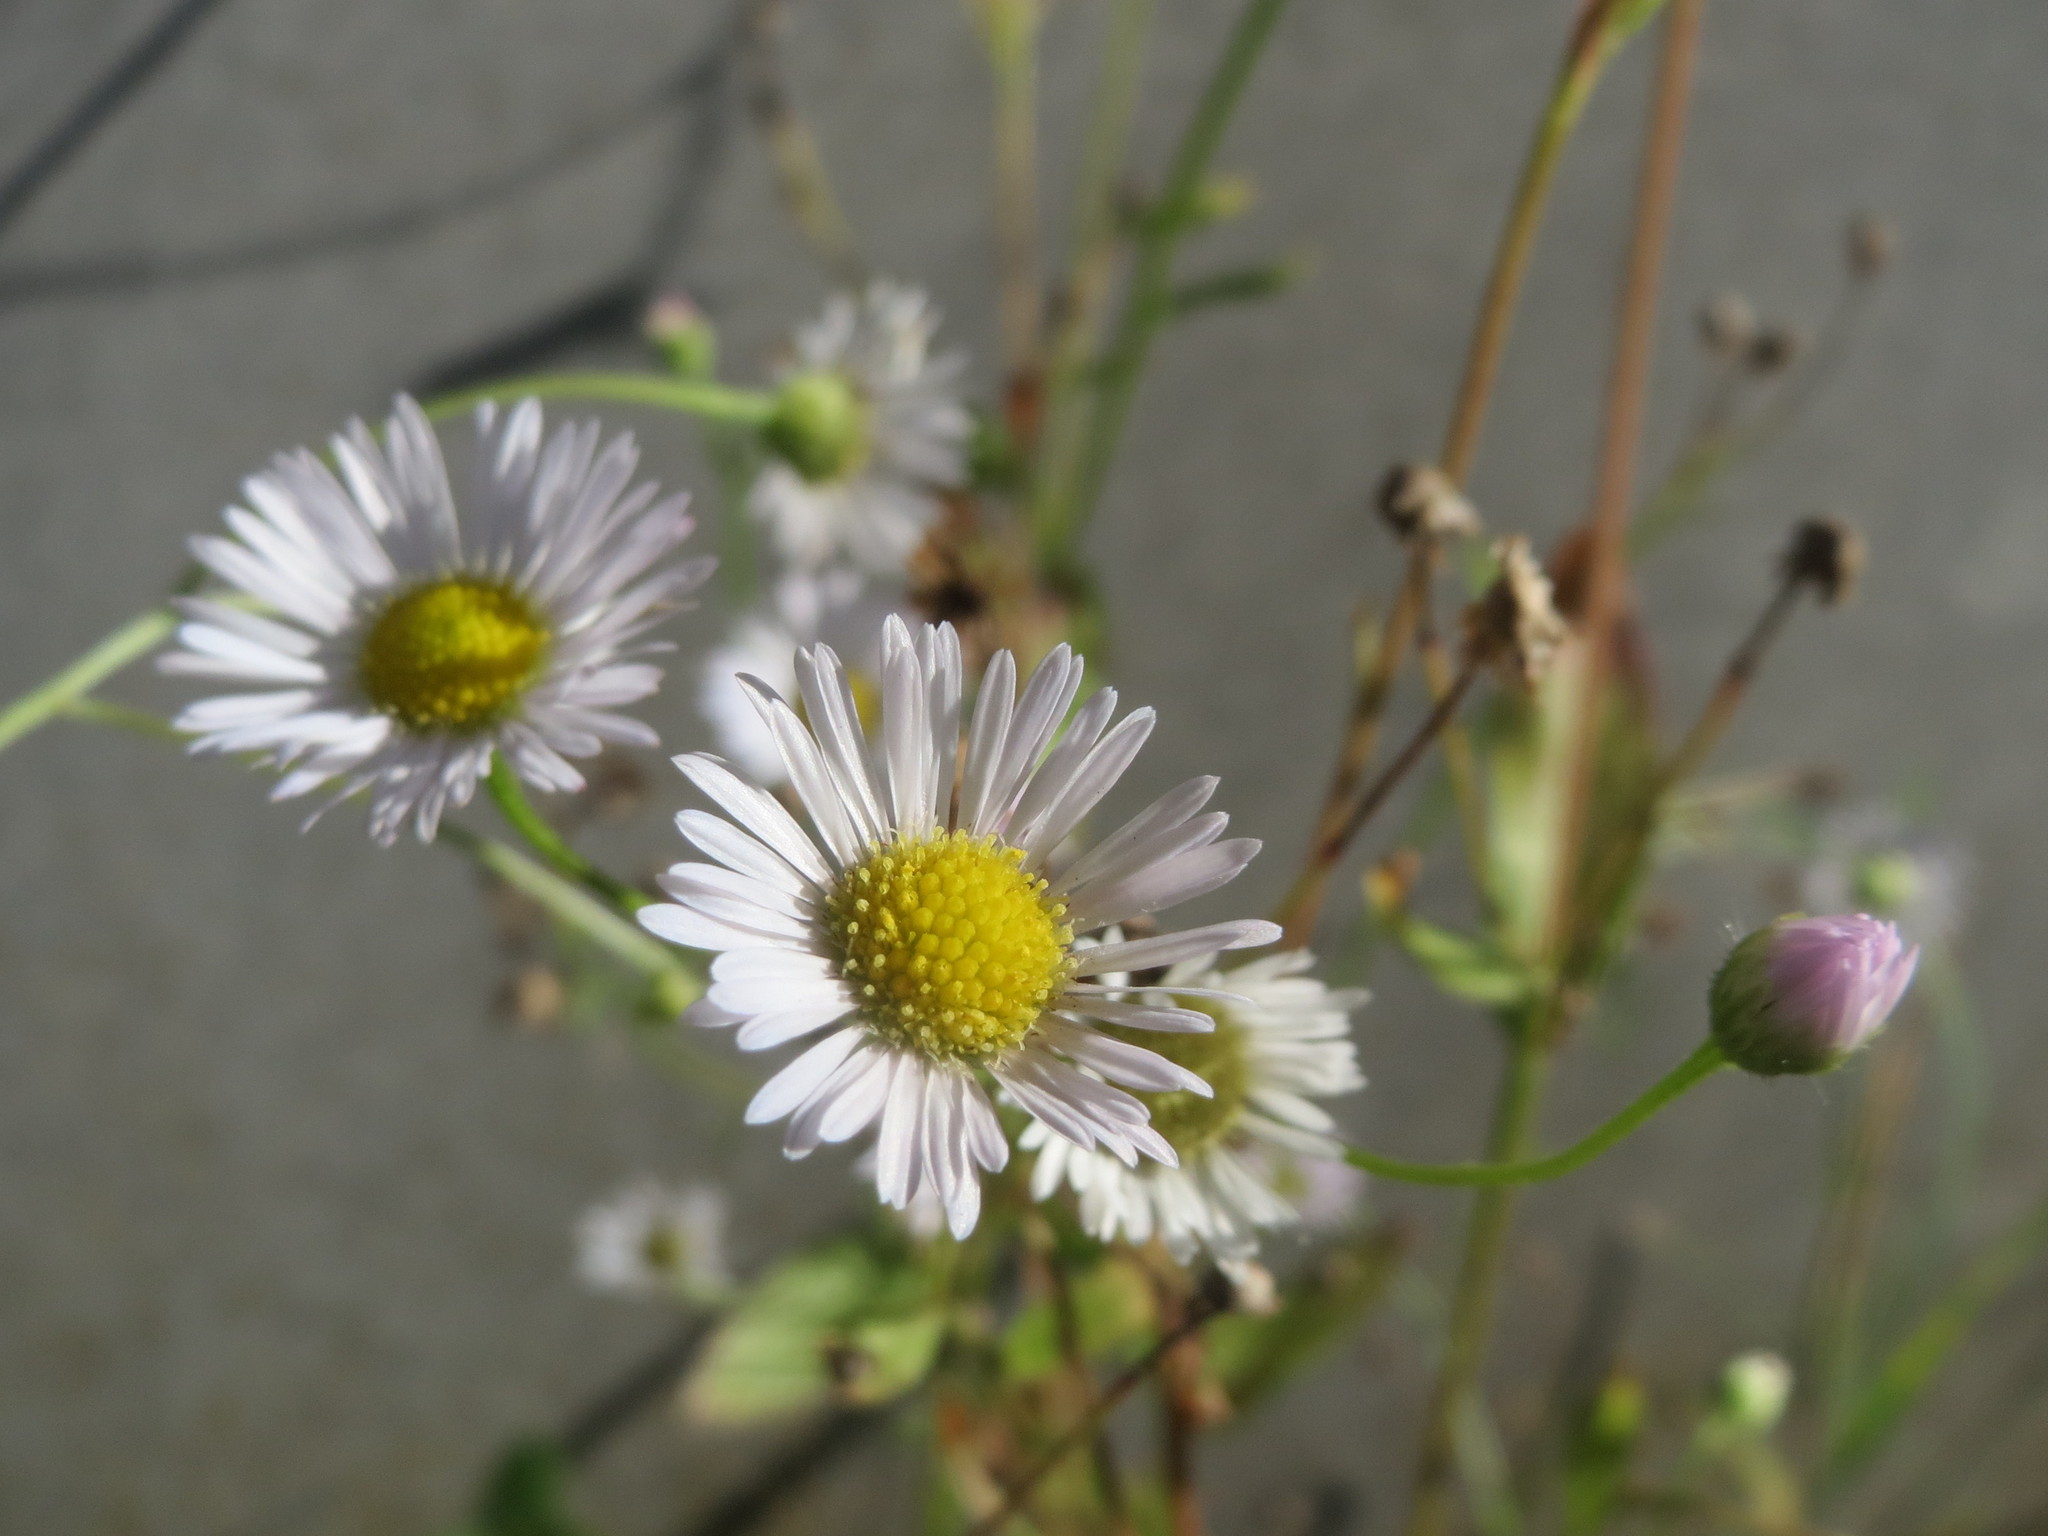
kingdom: Plantae
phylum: Tracheophyta
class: Magnoliopsida
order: Asterales
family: Asteraceae
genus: Erigeron
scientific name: Erigeron annuus
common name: Tall fleabane
